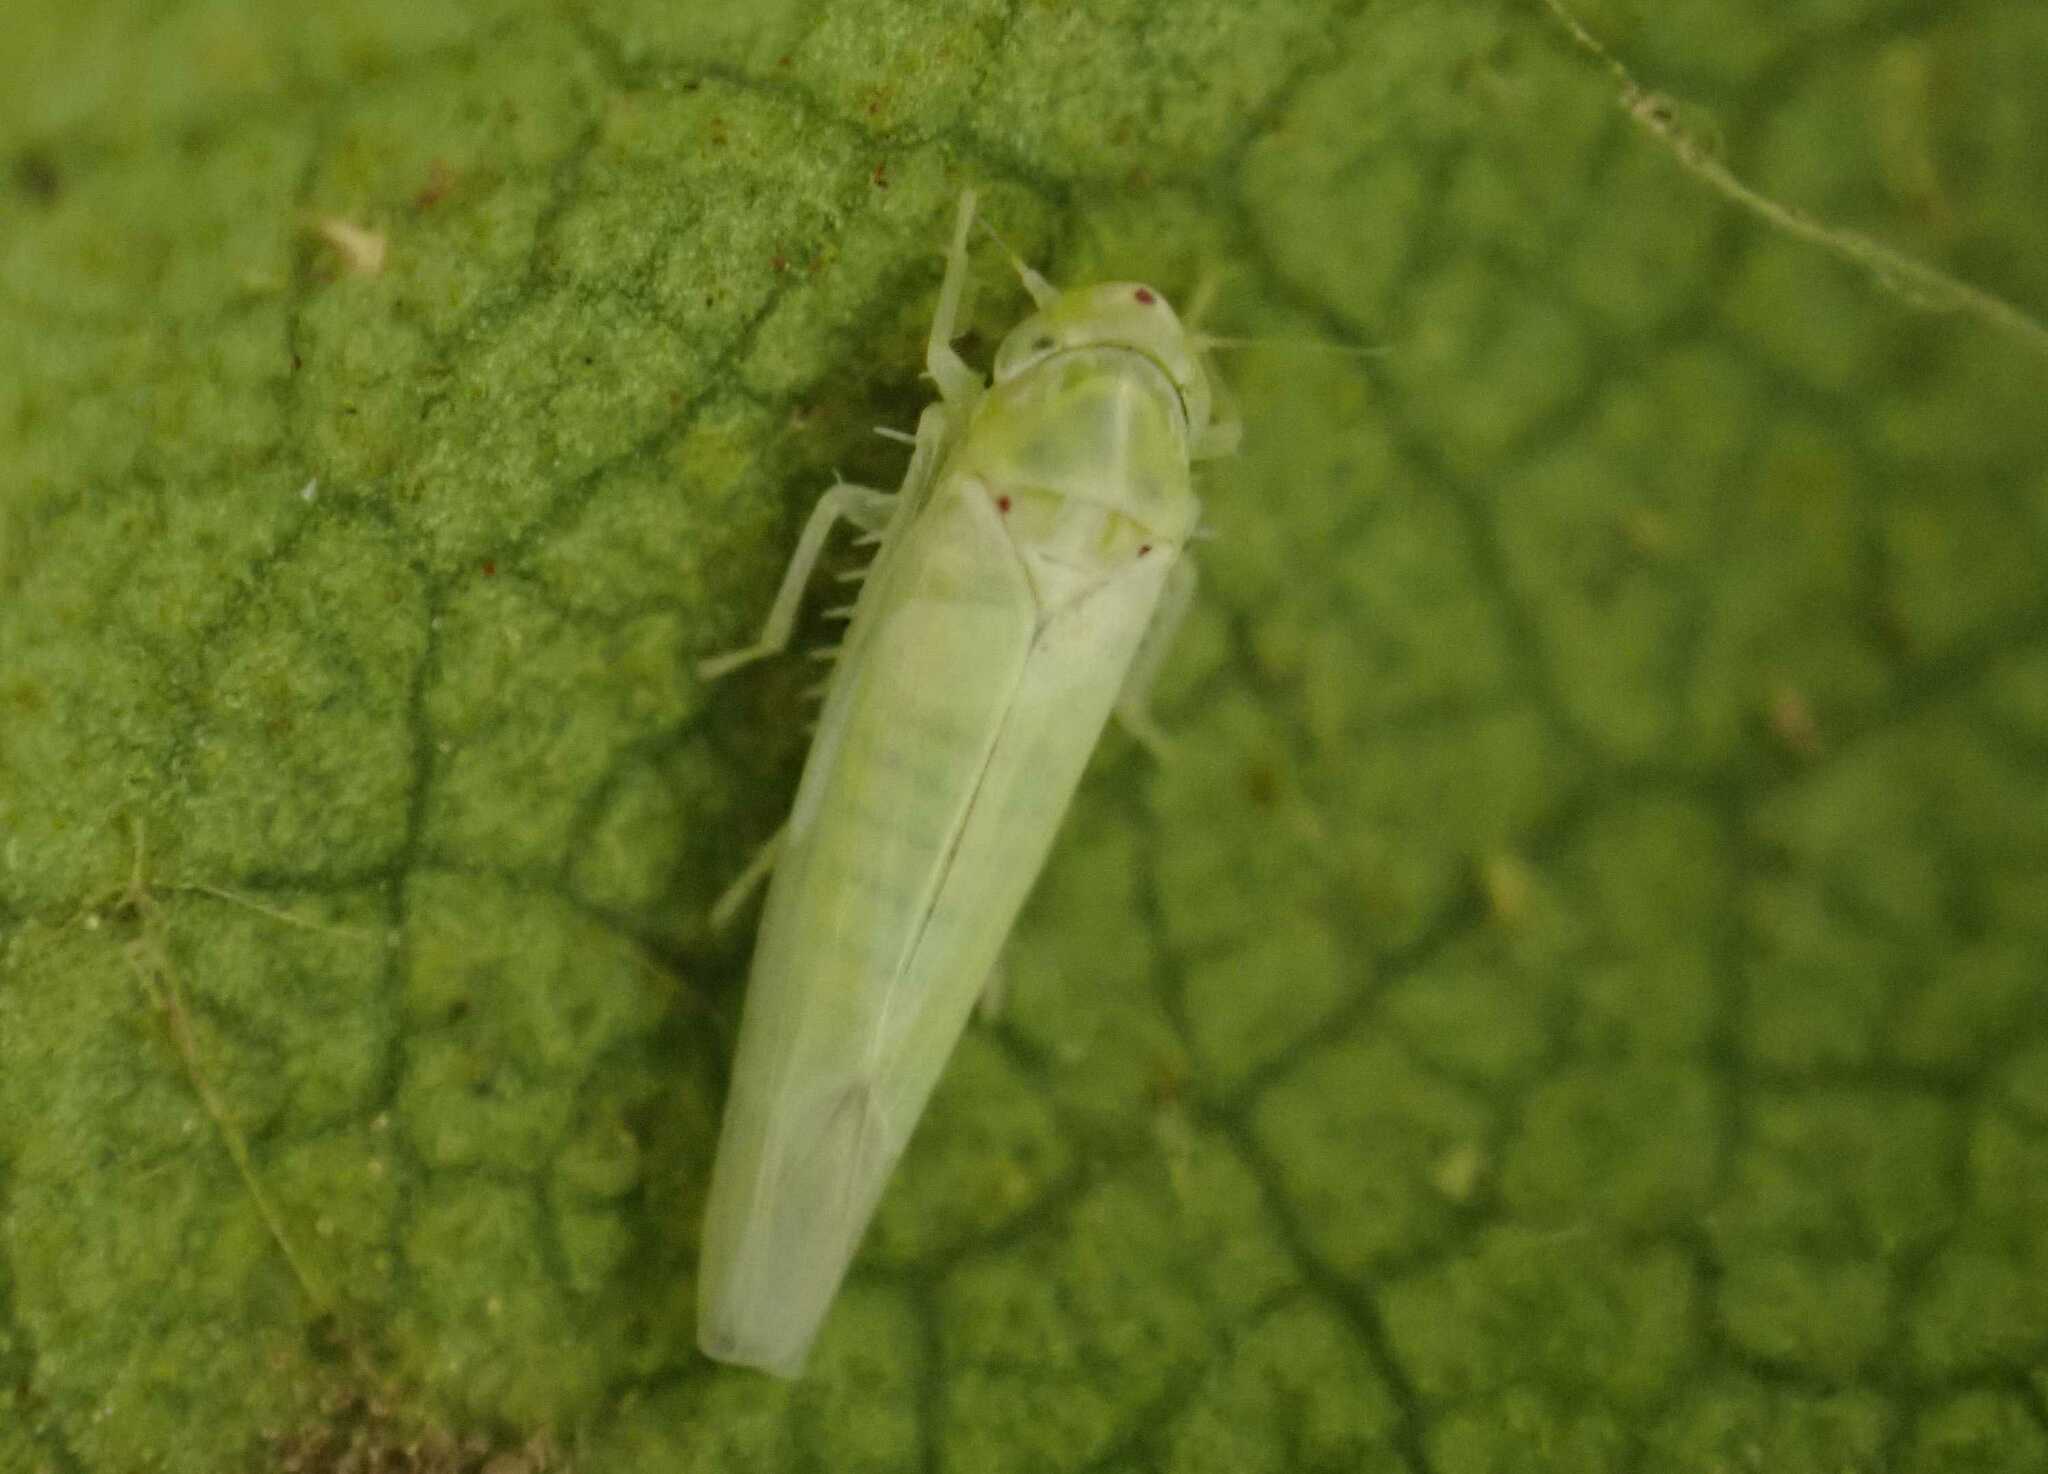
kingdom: Animalia
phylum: Arthropoda
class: Insecta
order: Hemiptera
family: Cicadellidae
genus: Zygina
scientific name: Zygina nivea
